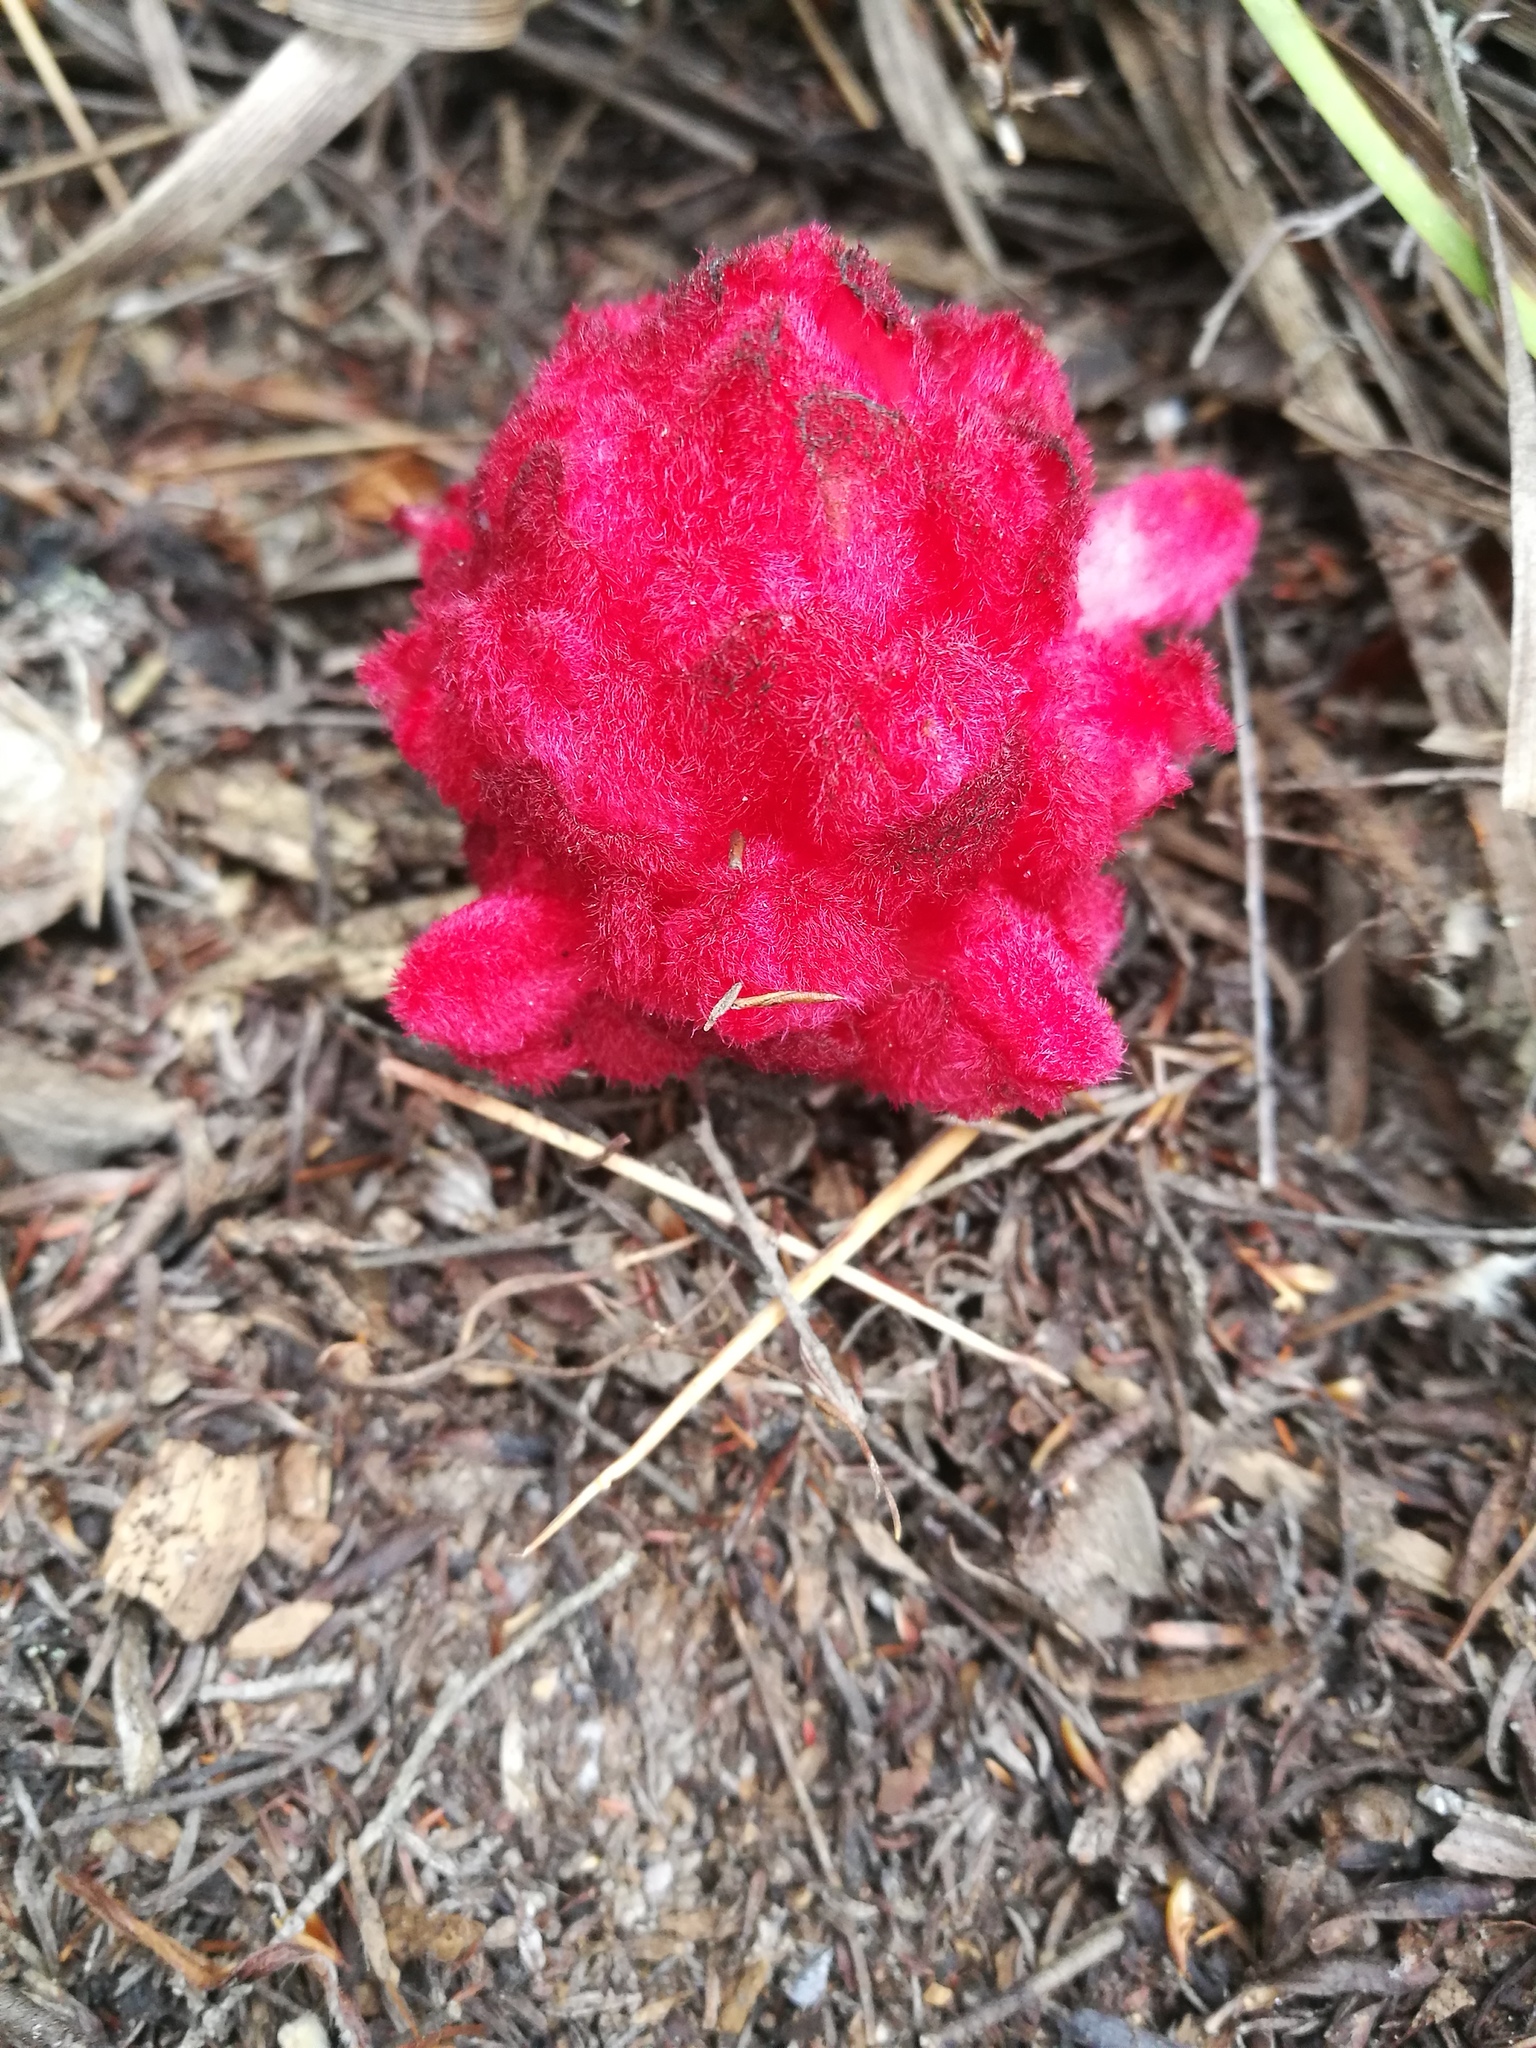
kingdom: Plantae
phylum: Tracheophyta
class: Magnoliopsida
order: Lamiales
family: Orobanchaceae
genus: Hyobanche
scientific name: Hyobanche sanguinea
